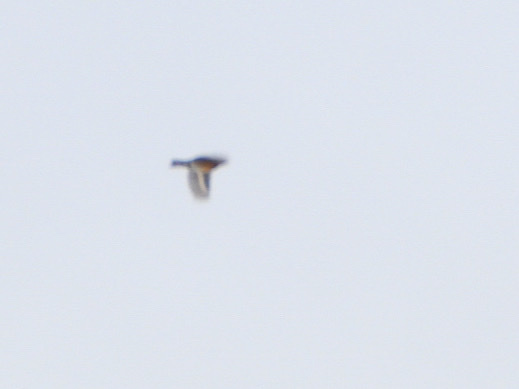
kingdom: Animalia
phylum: Chordata
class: Aves
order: Passeriformes
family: Turdidae
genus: Ixoreus
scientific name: Ixoreus naevius
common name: Varied thrush
